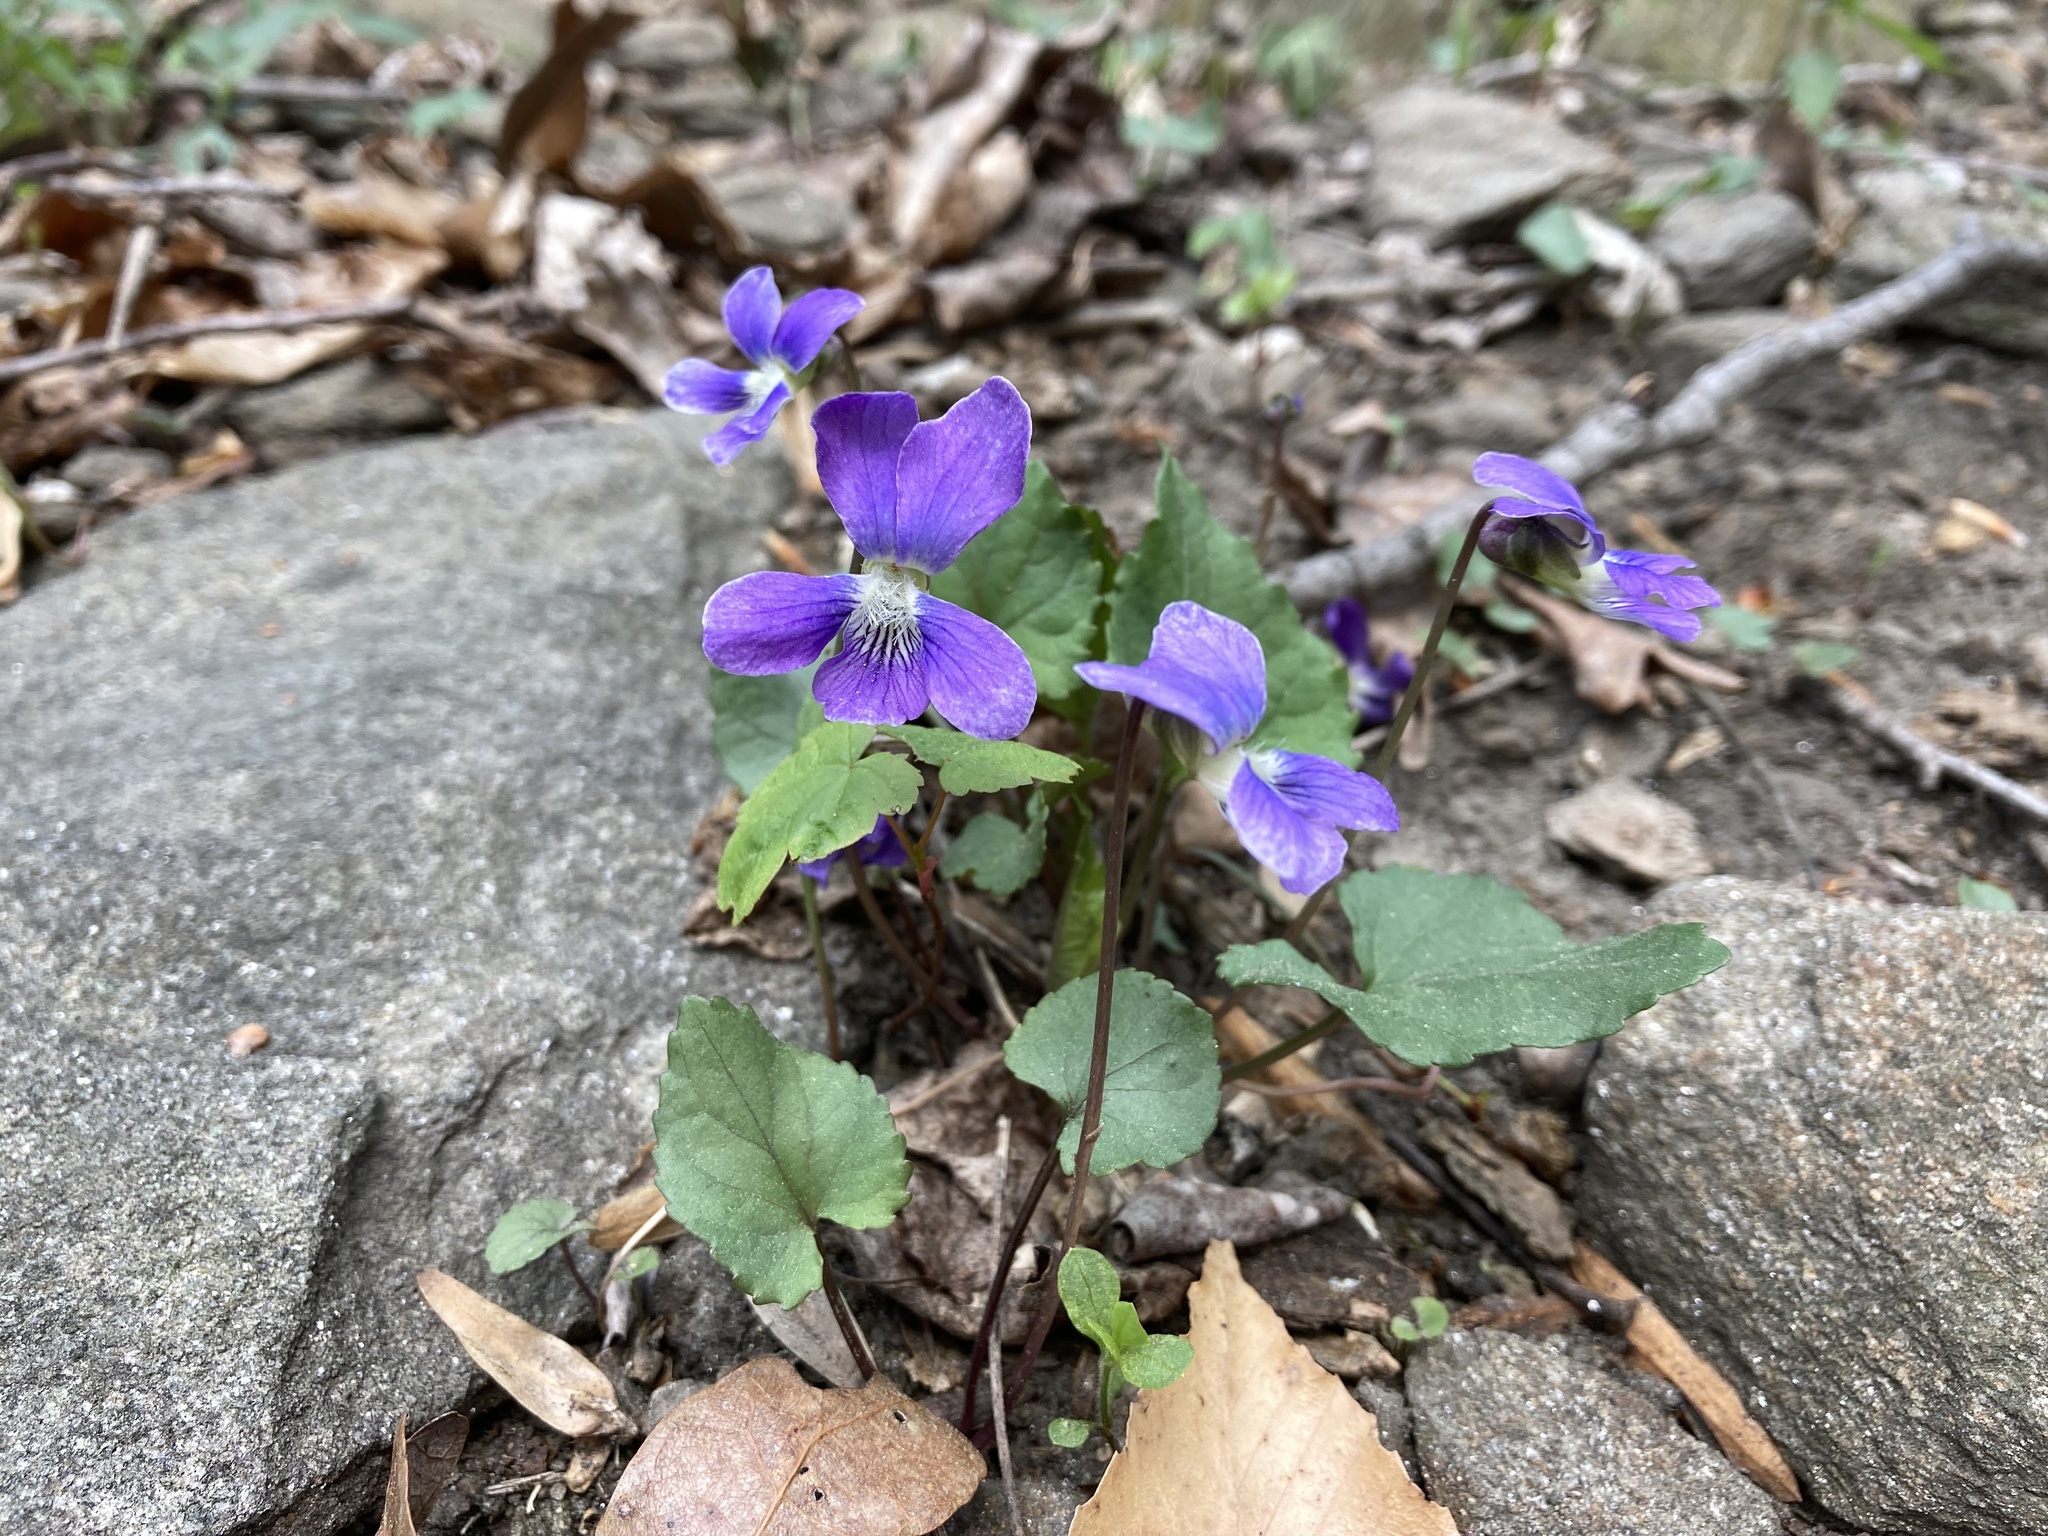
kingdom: Plantae
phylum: Tracheophyta
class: Magnoliopsida
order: Malpighiales
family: Violaceae
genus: Viola
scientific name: Viola sororia
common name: Dooryard violet
